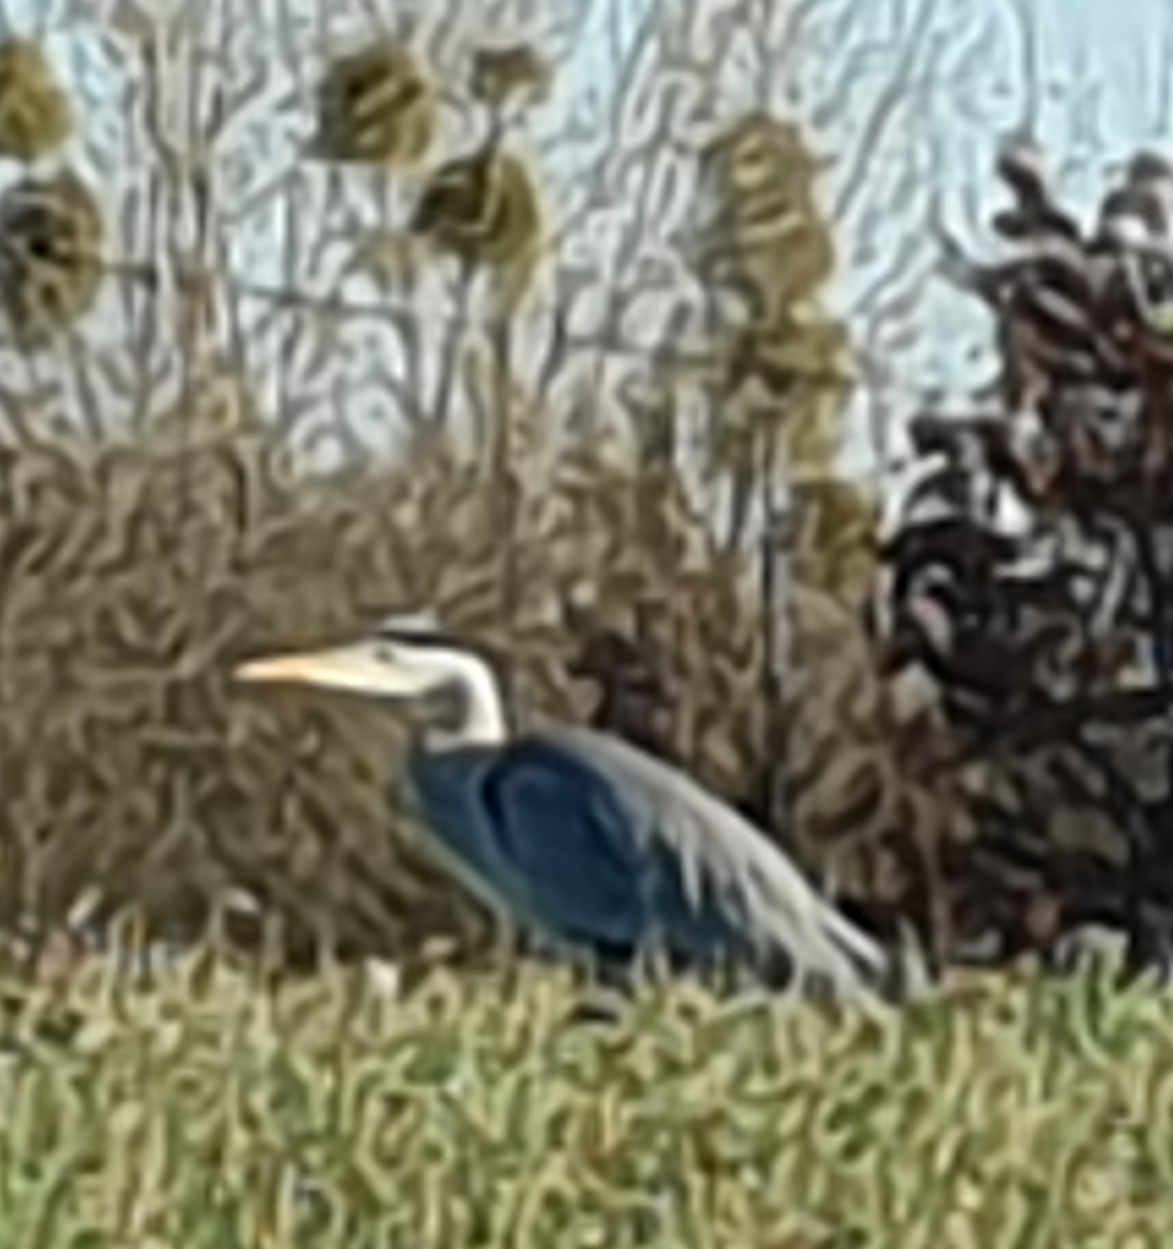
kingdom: Animalia
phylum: Chordata
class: Aves
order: Pelecaniformes
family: Ardeidae
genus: Ardea
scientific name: Ardea cinerea
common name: Grey heron
